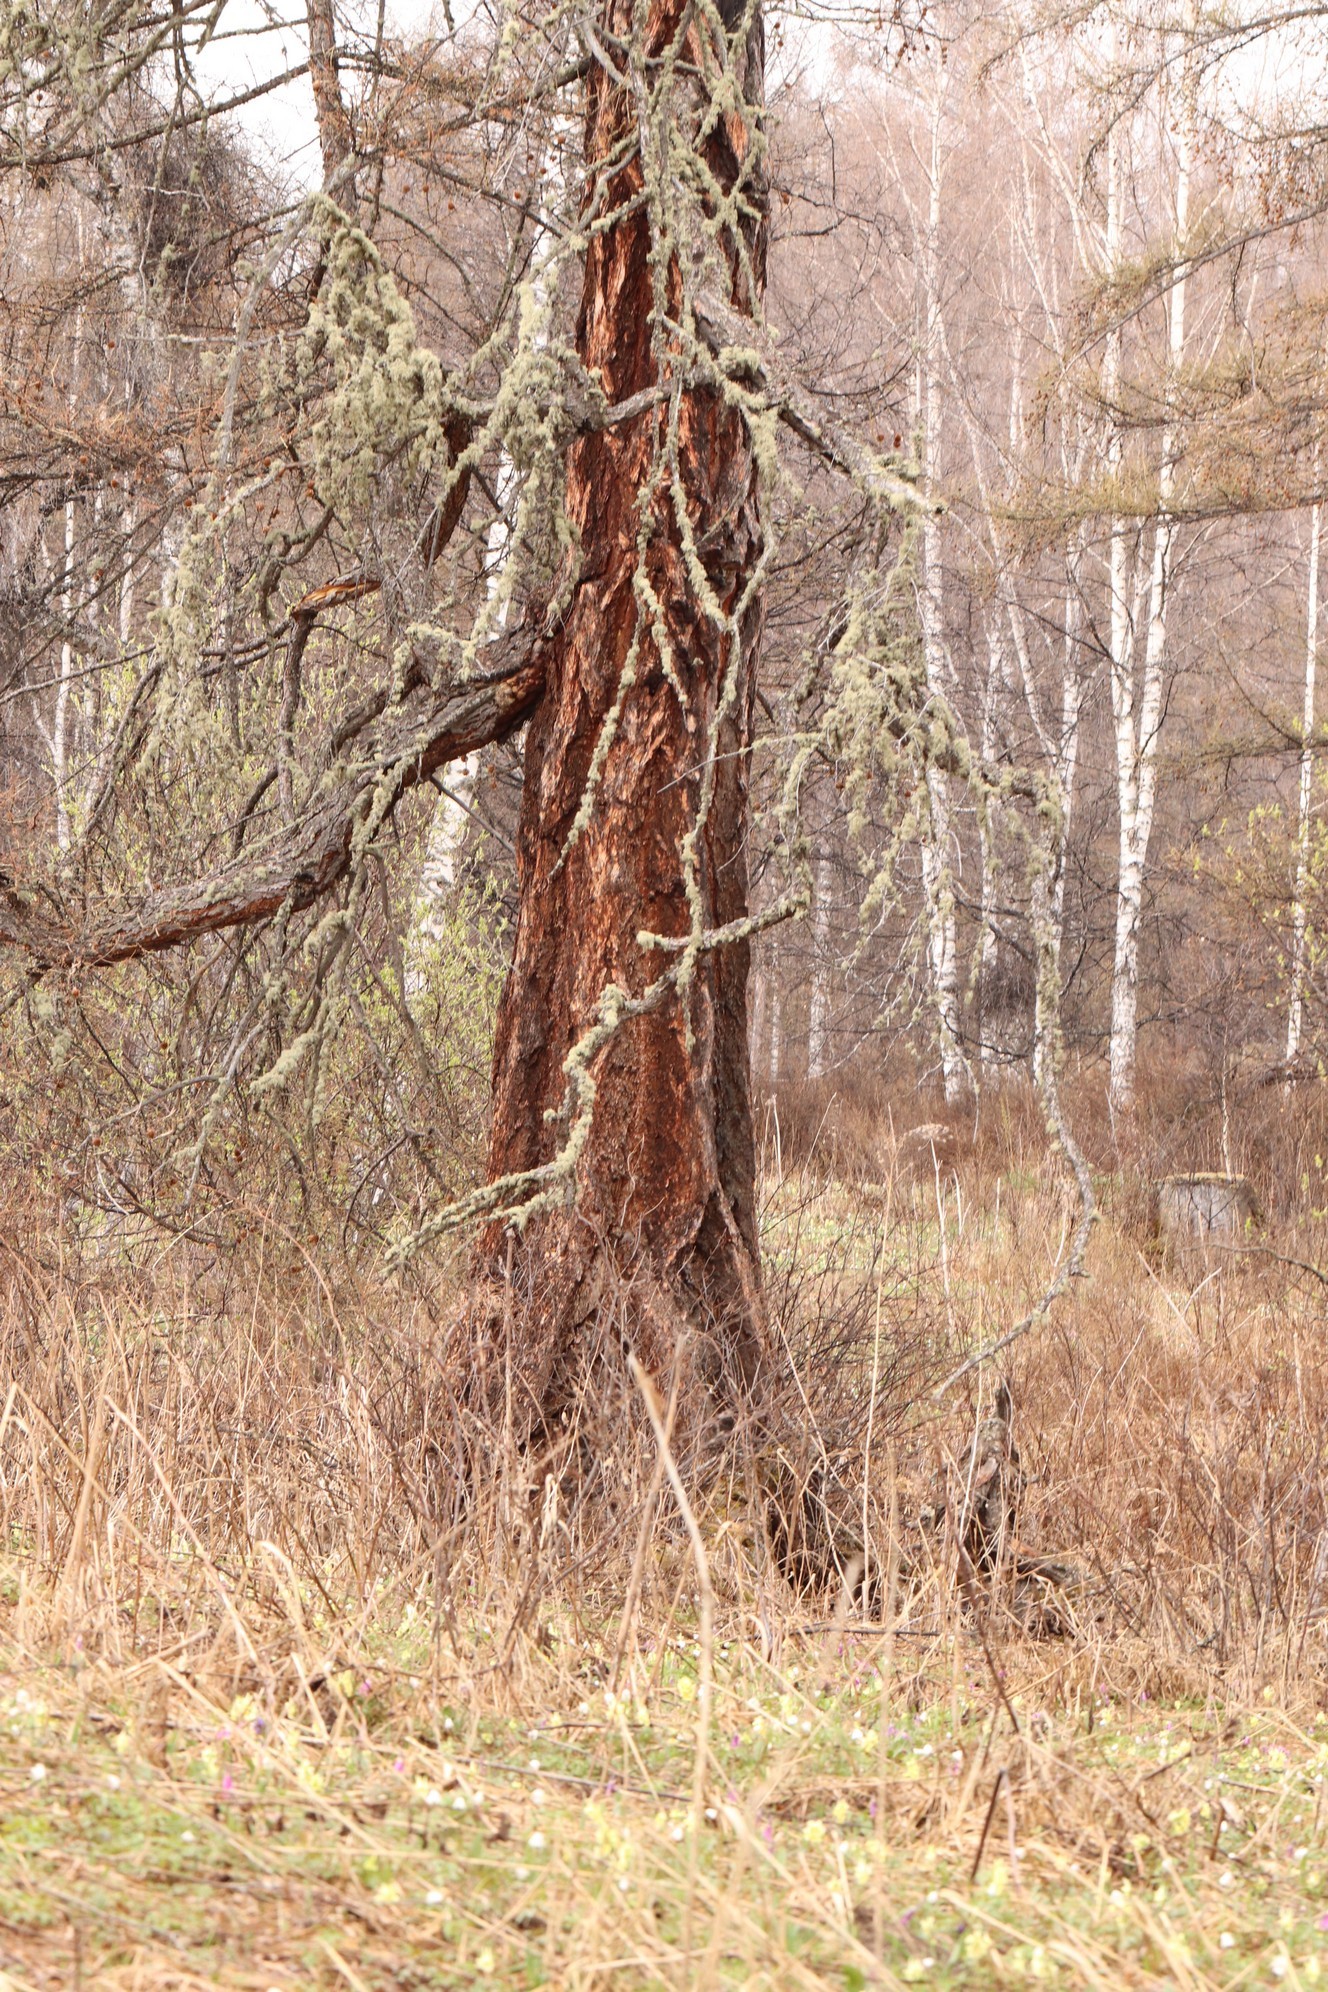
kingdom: Plantae
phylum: Tracheophyta
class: Pinopsida
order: Pinales
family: Pinaceae
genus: Larix
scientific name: Larix sibirica
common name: Siberian larch
